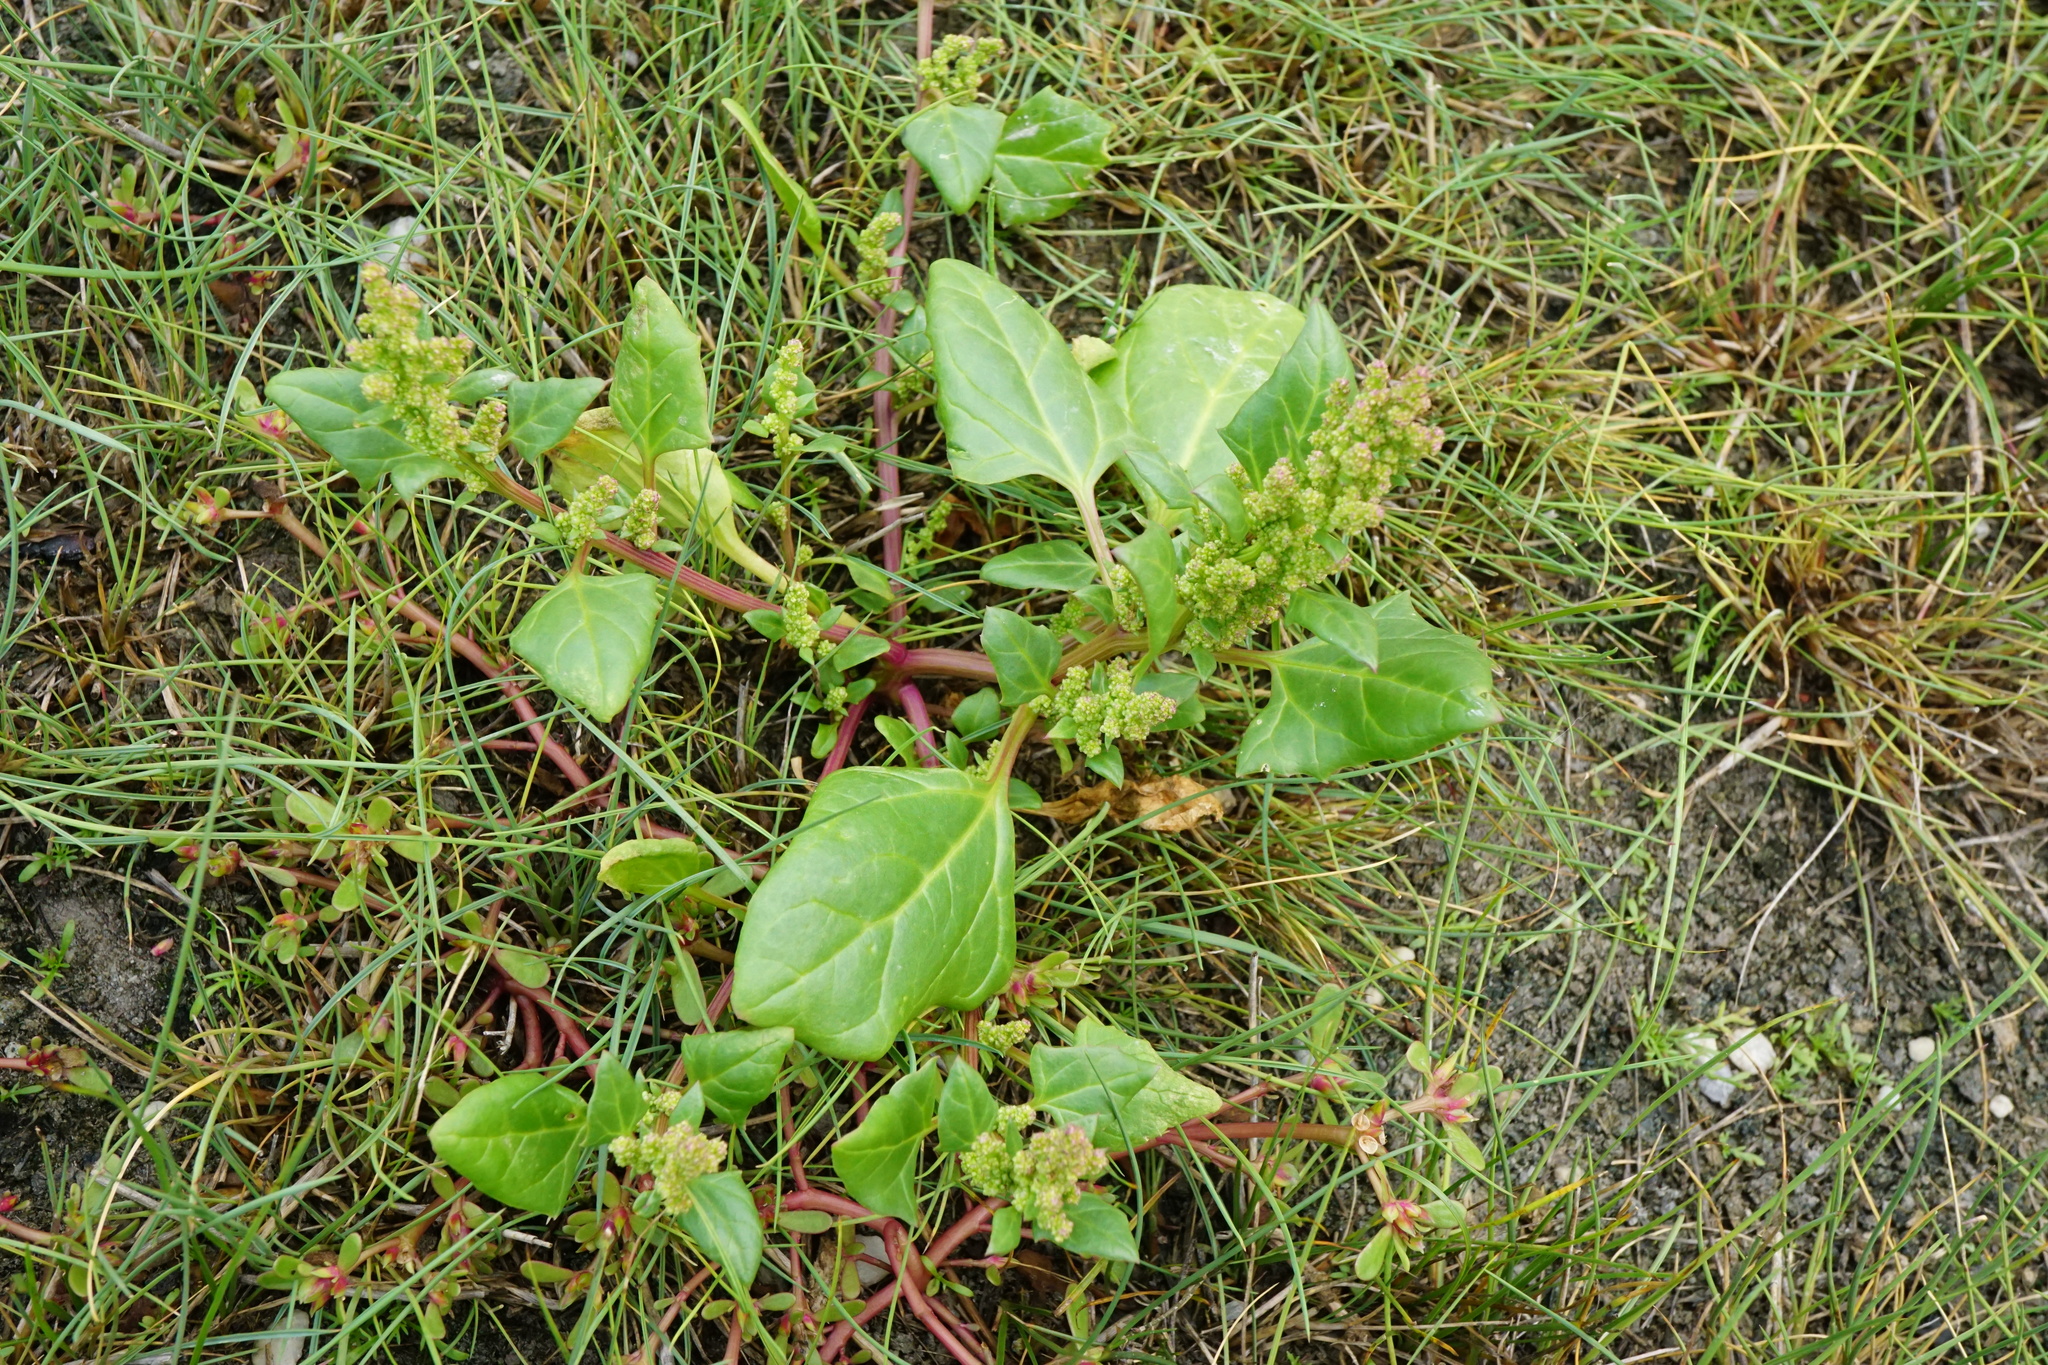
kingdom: Plantae
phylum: Tracheophyta
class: Magnoliopsida
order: Caryophyllales
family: Amaranthaceae
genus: Oxybasis
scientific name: Oxybasis chenopodioides
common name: Saltmarsh goosefoot
